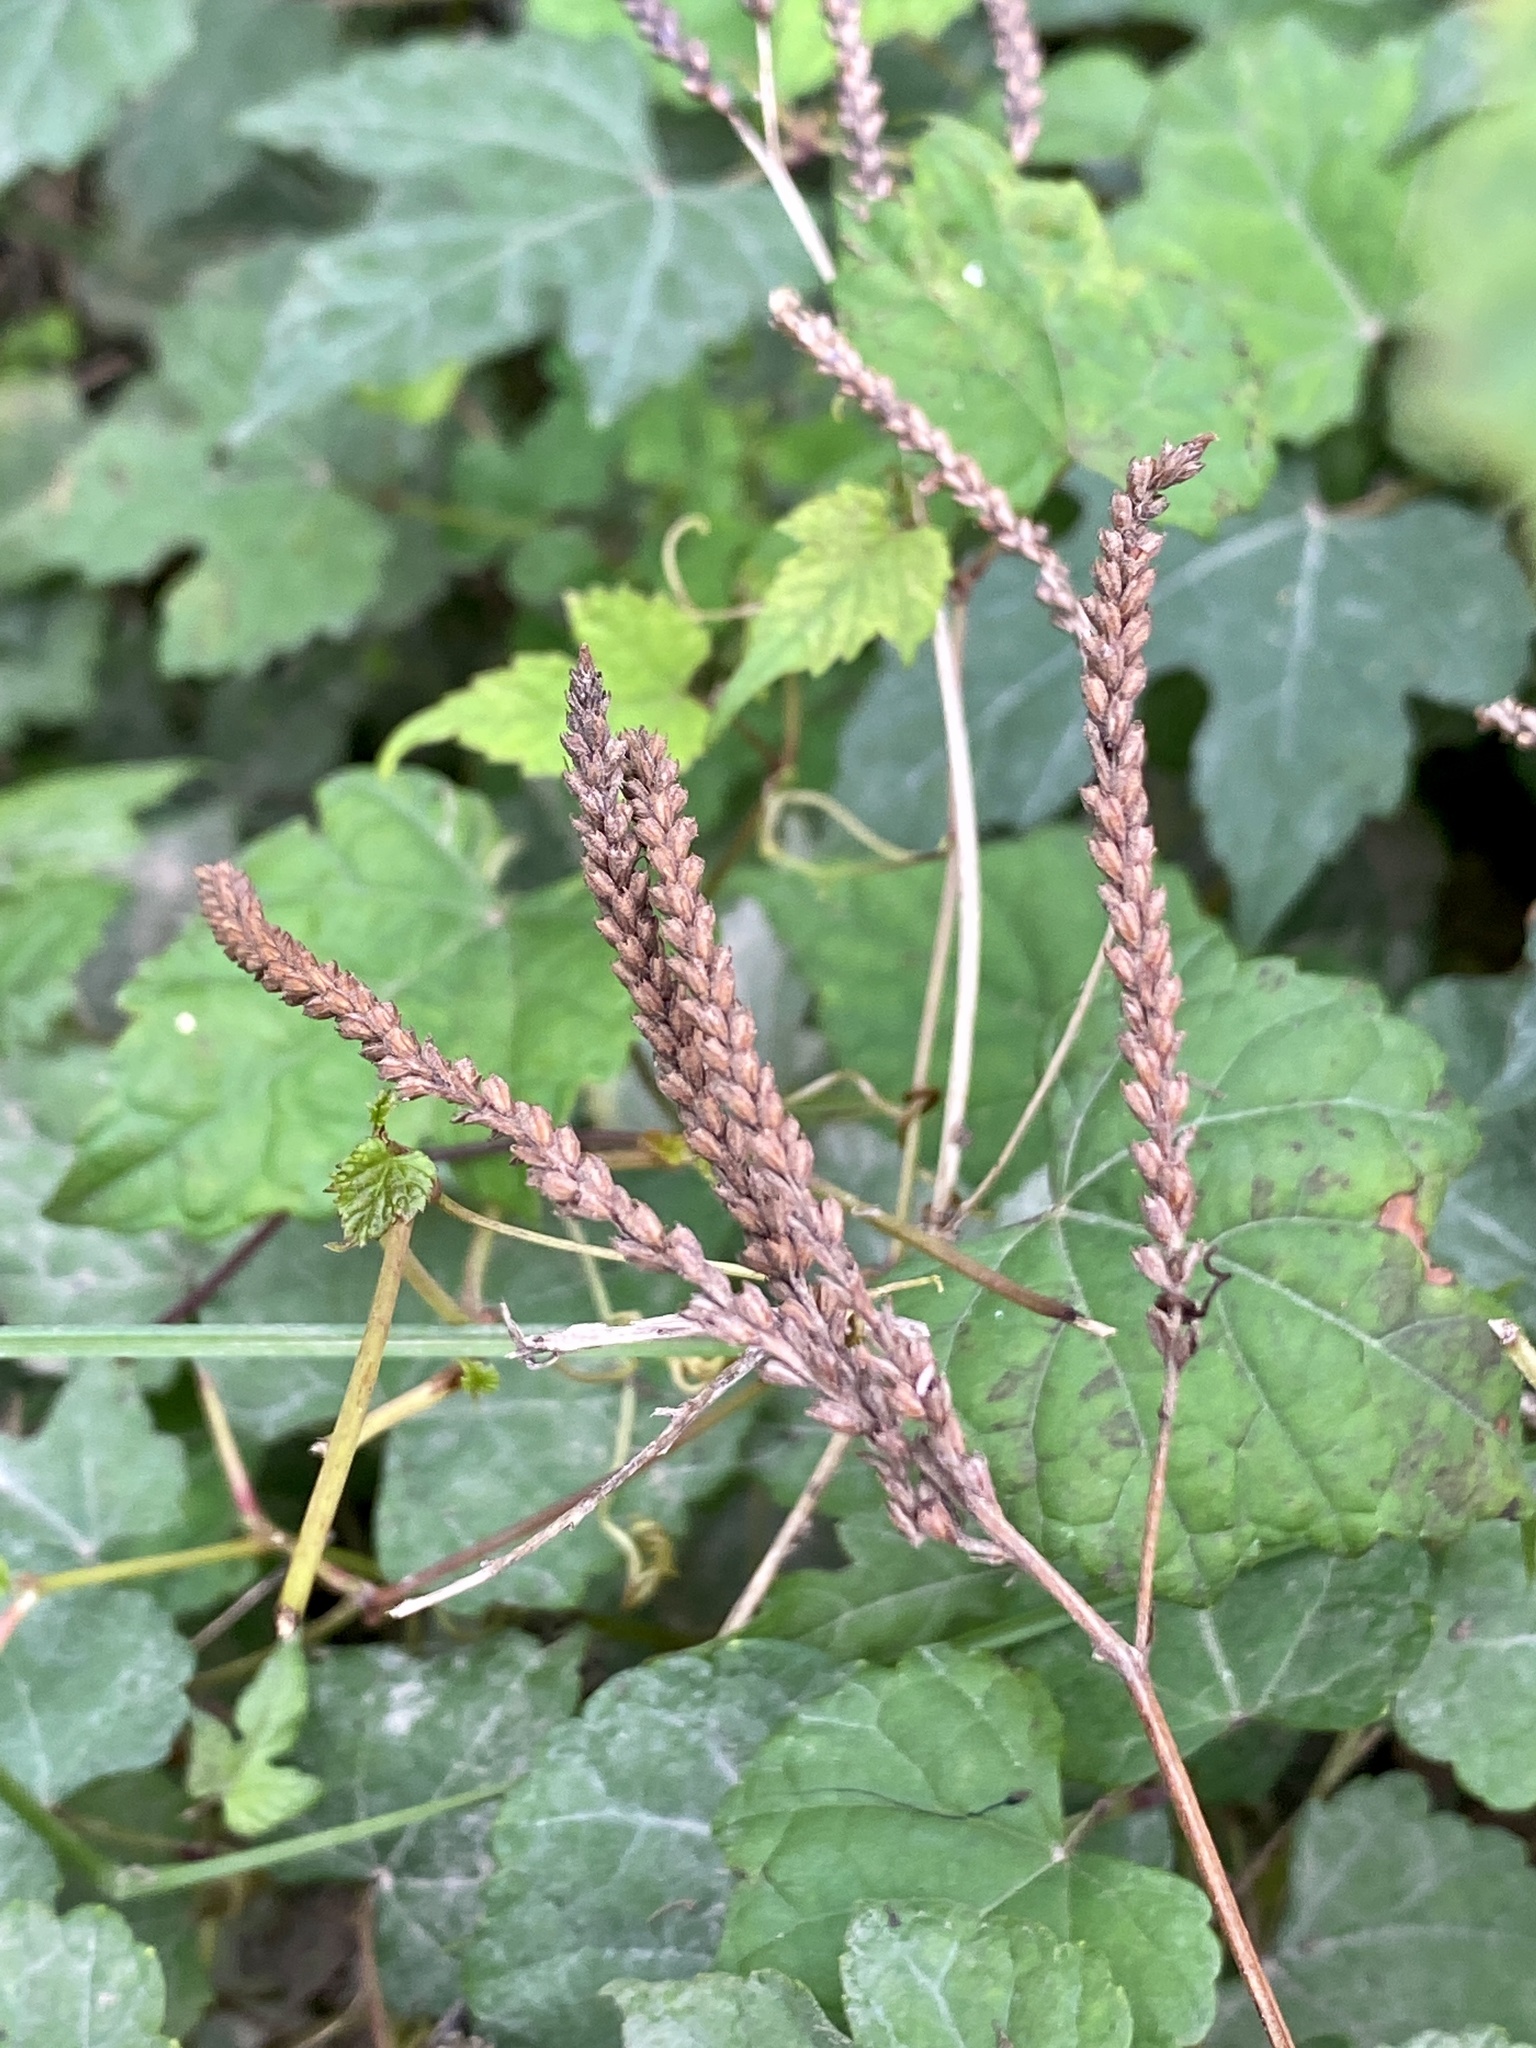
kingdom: Plantae
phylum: Tracheophyta
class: Magnoliopsida
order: Lamiales
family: Verbenaceae
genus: Verbena
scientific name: Verbena hastata
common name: American blue vervain
